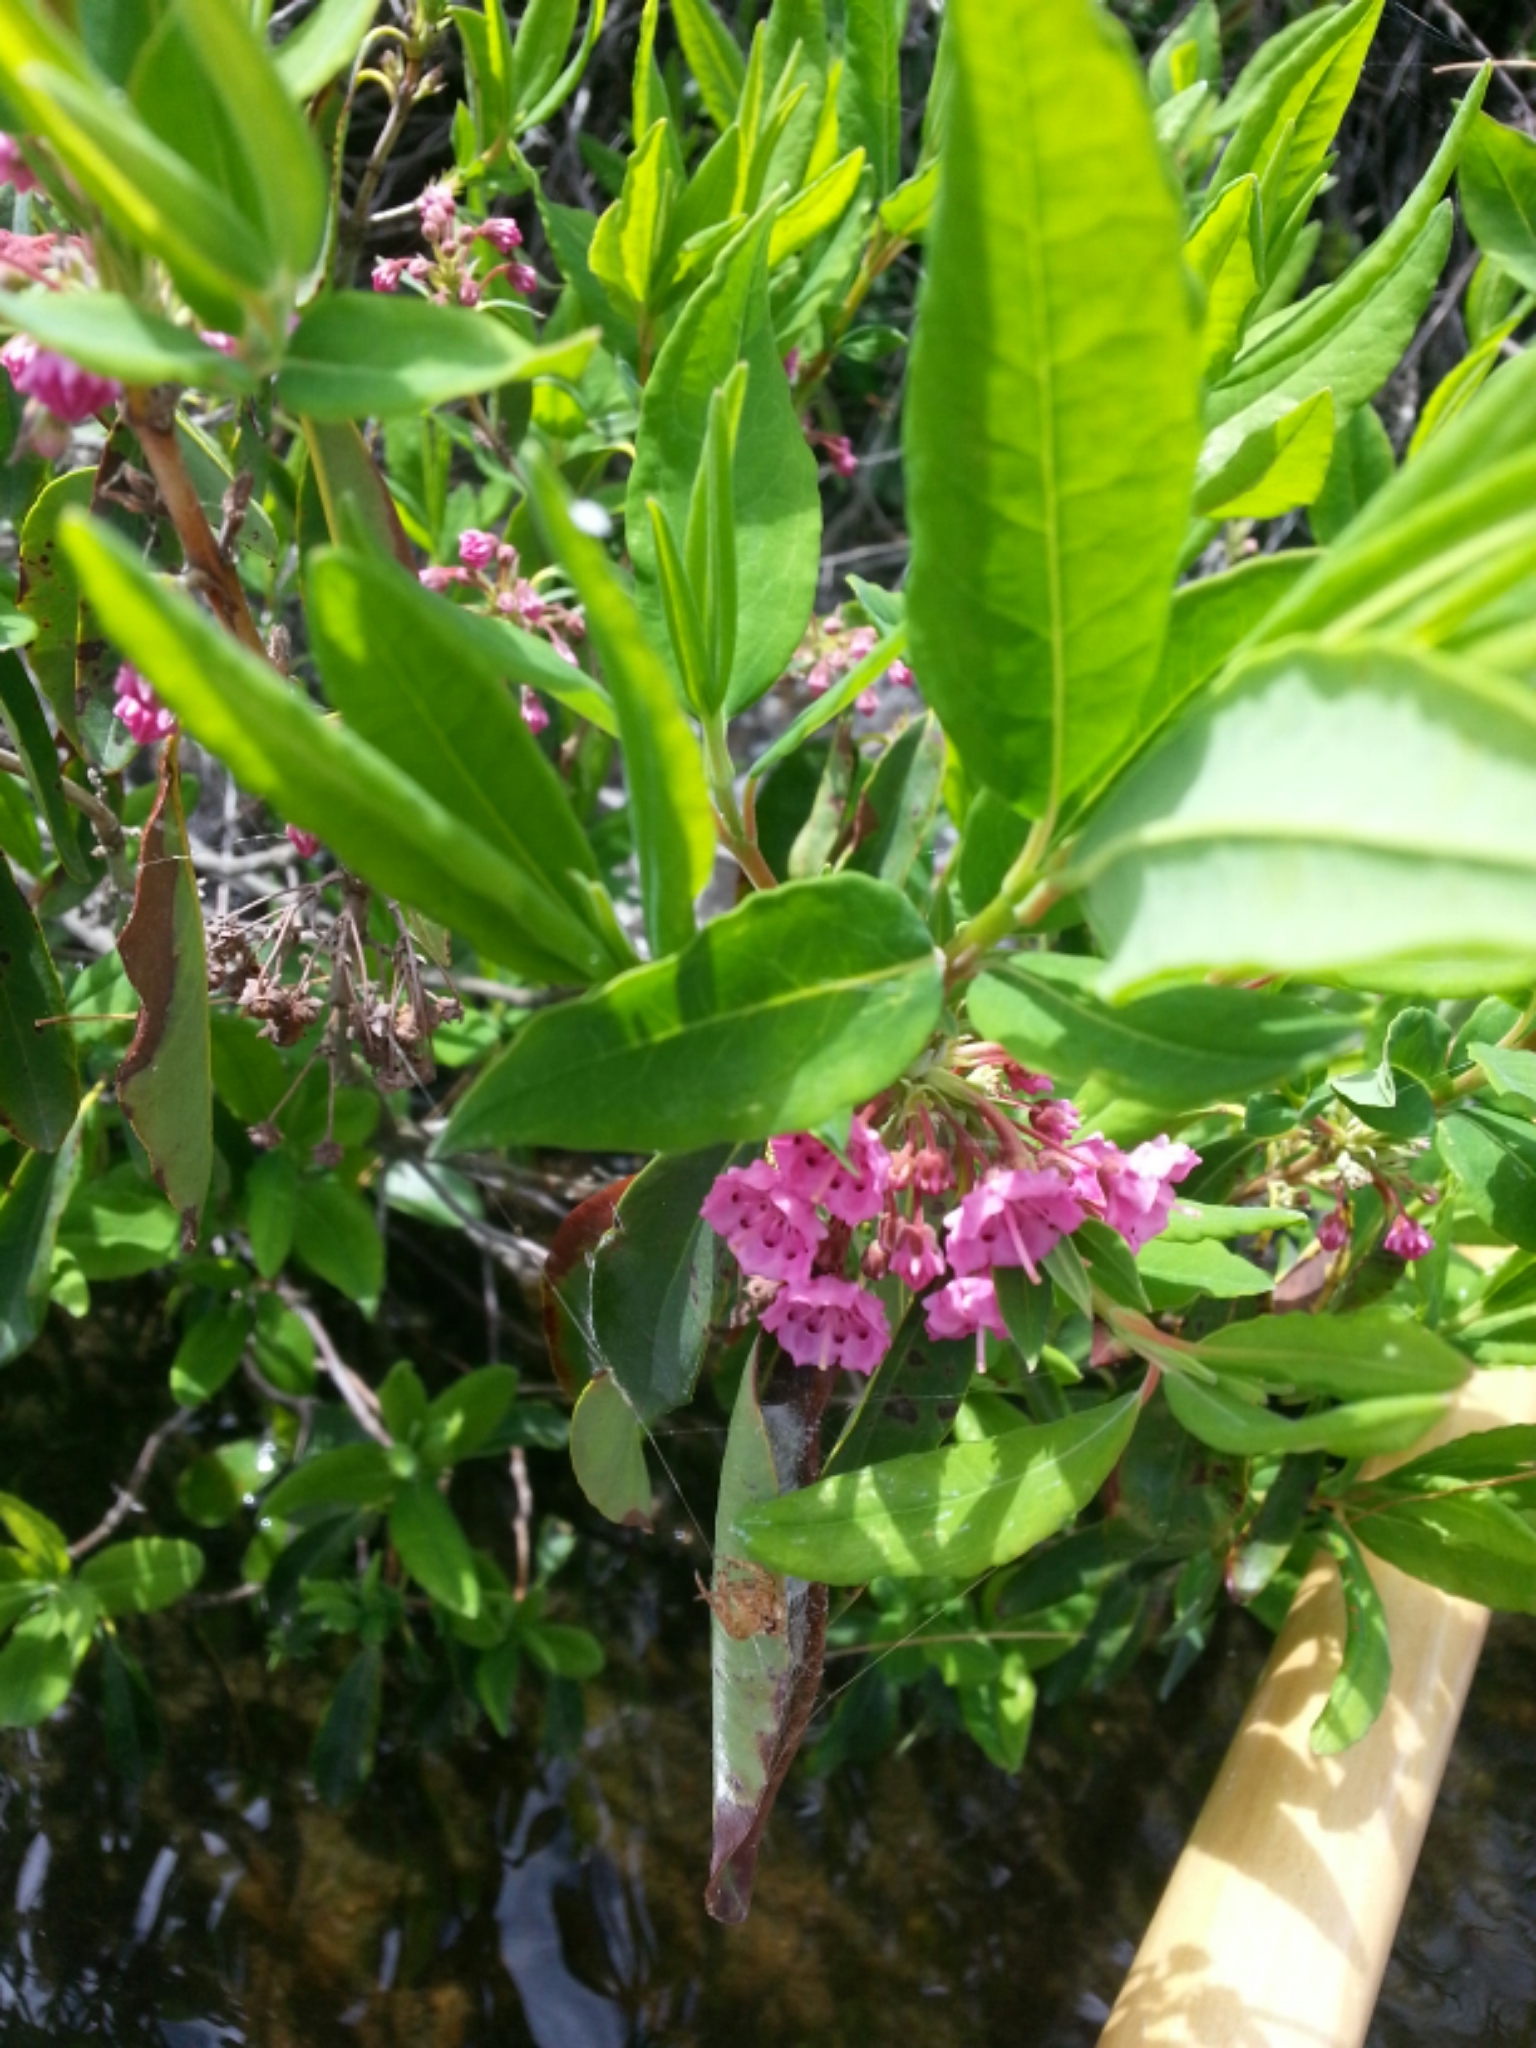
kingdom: Plantae
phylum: Tracheophyta
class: Magnoliopsida
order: Ericales
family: Ericaceae
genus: Kalmia
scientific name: Kalmia angustifolia
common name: Sheep-laurel
